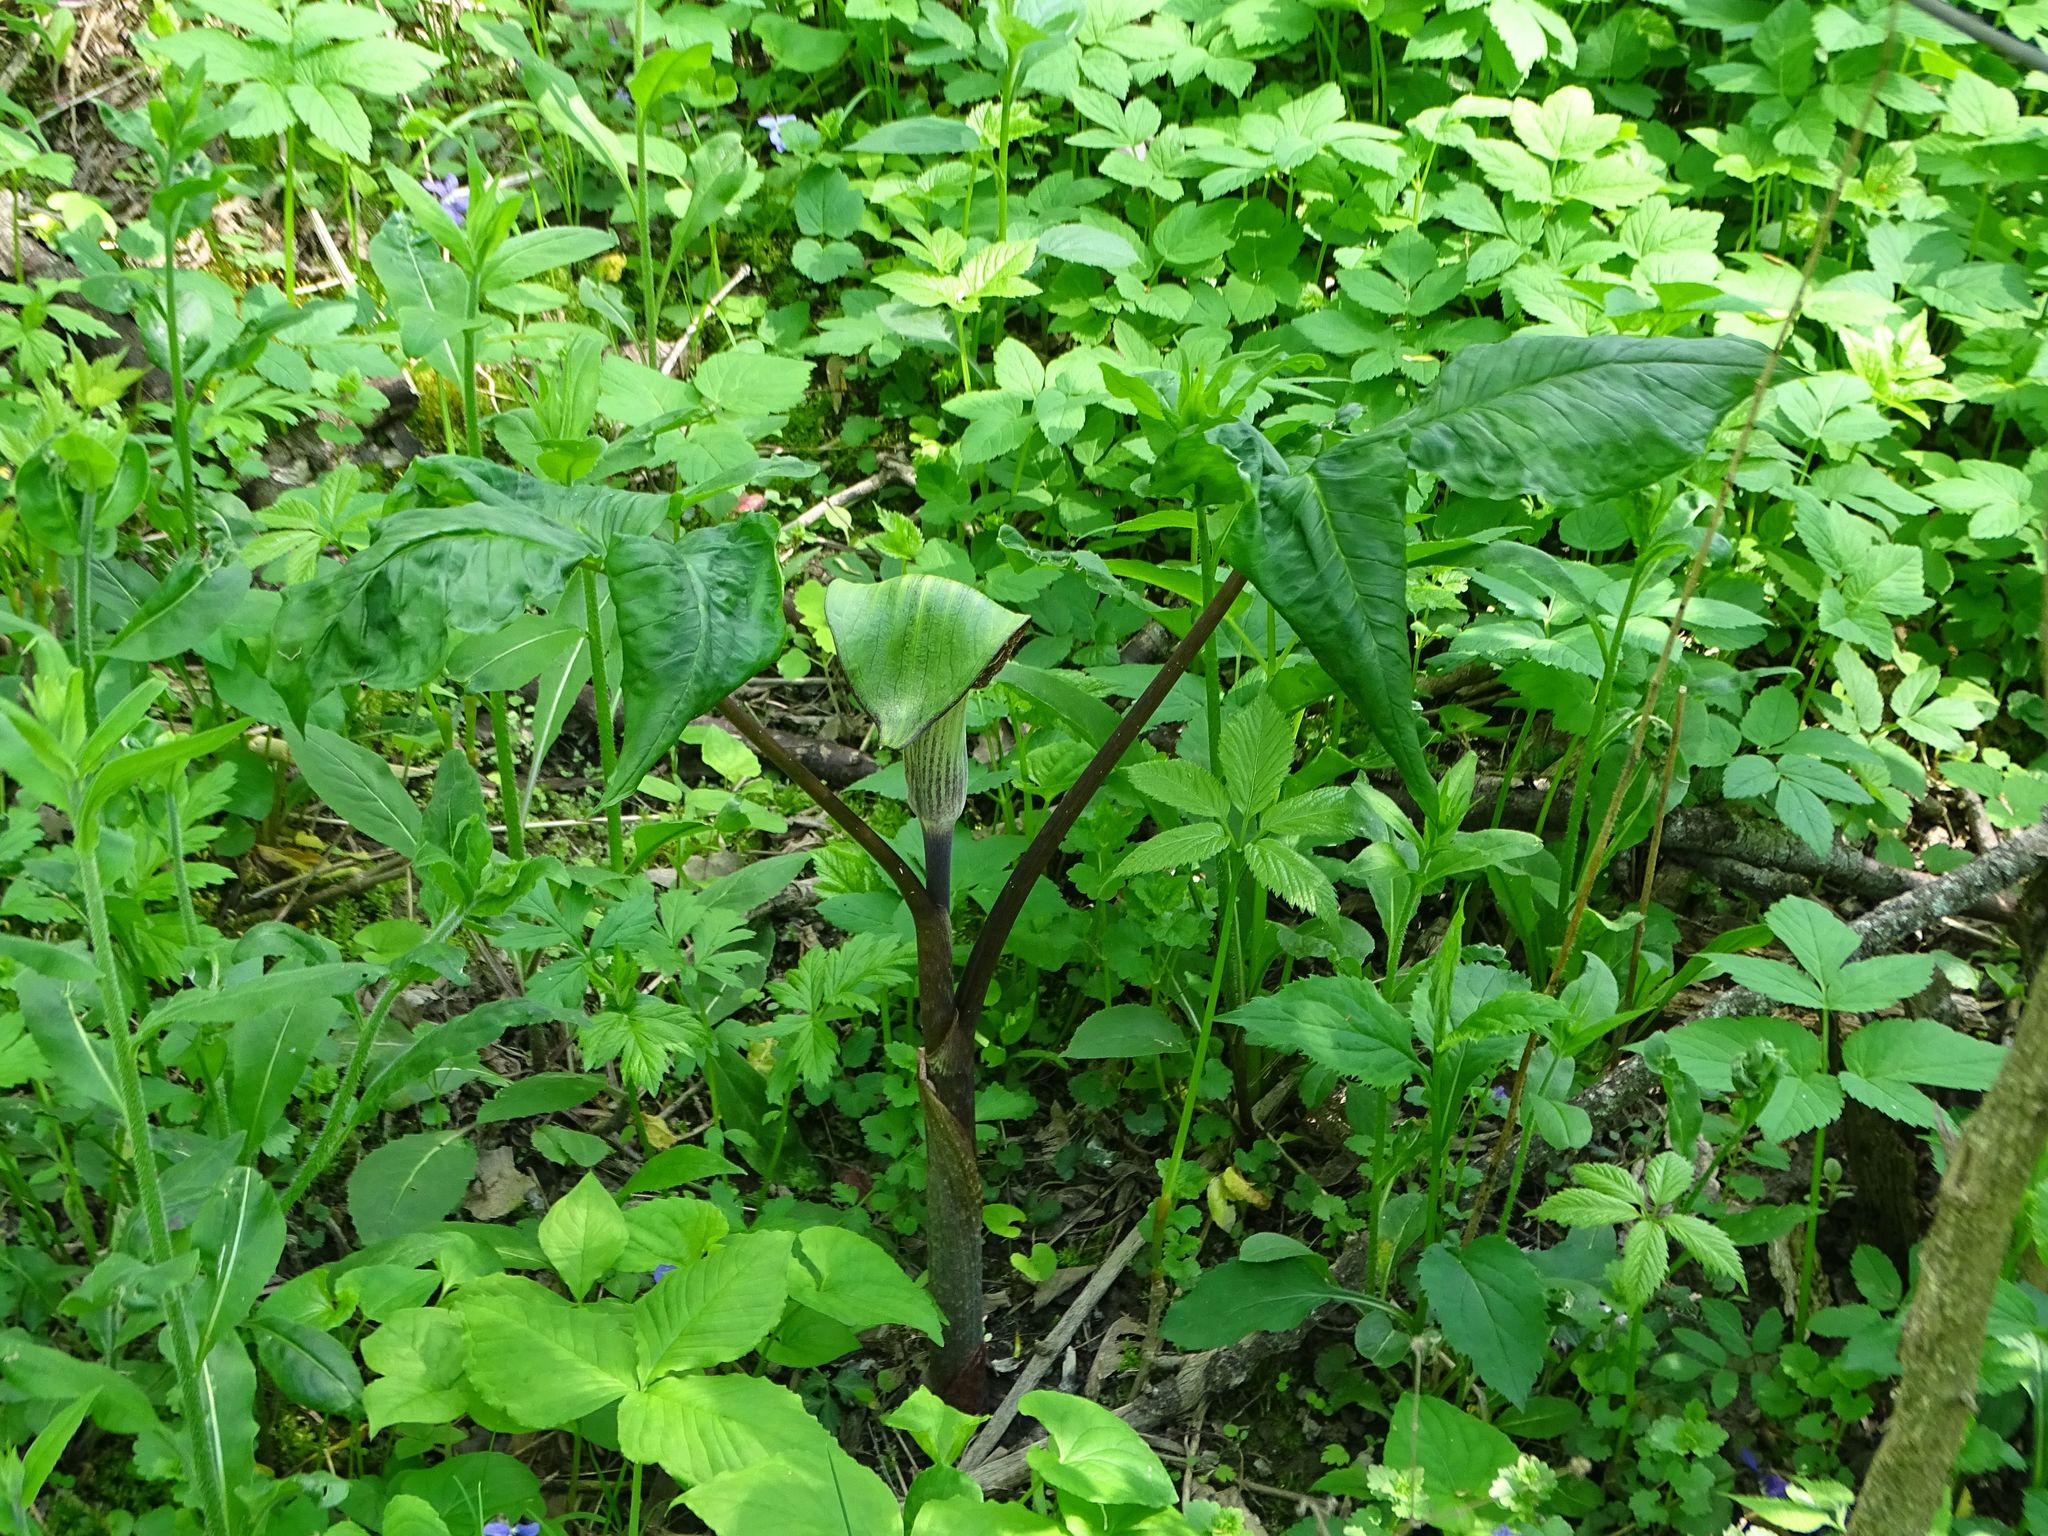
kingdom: Plantae
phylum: Tracheophyta
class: Liliopsida
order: Alismatales
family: Araceae
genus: Arisaema
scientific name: Arisaema triphyllum
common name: Jack-in-the-pulpit
